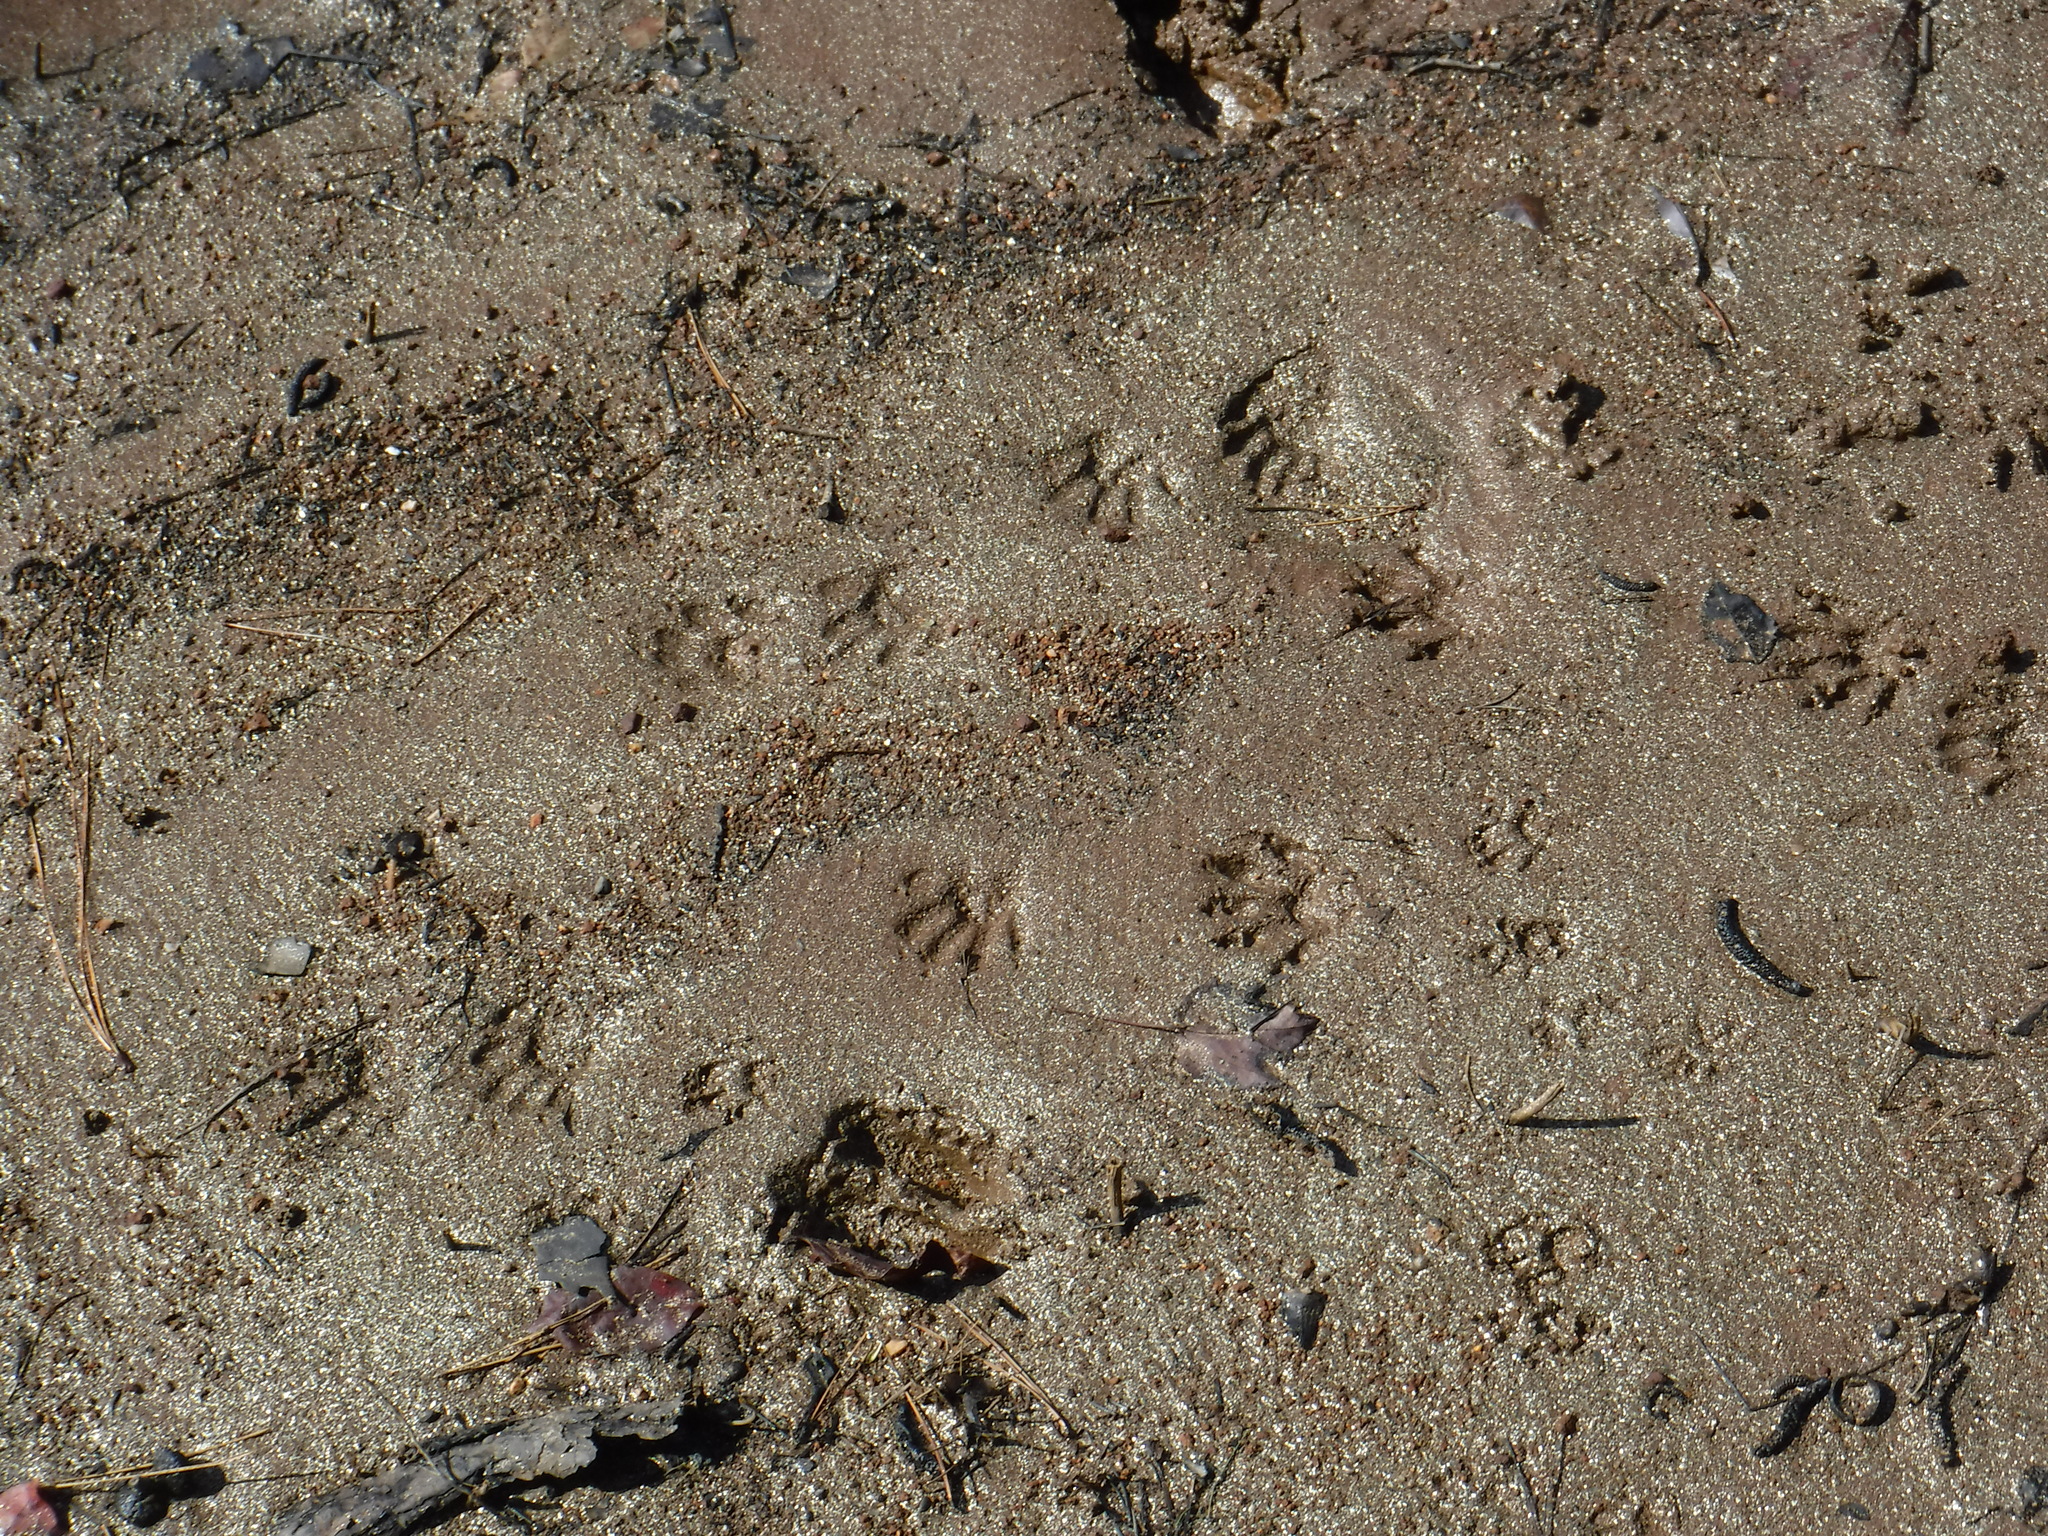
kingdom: Animalia
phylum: Chordata
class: Mammalia
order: Carnivora
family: Procyonidae
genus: Procyon
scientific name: Procyon lotor
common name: Raccoon
